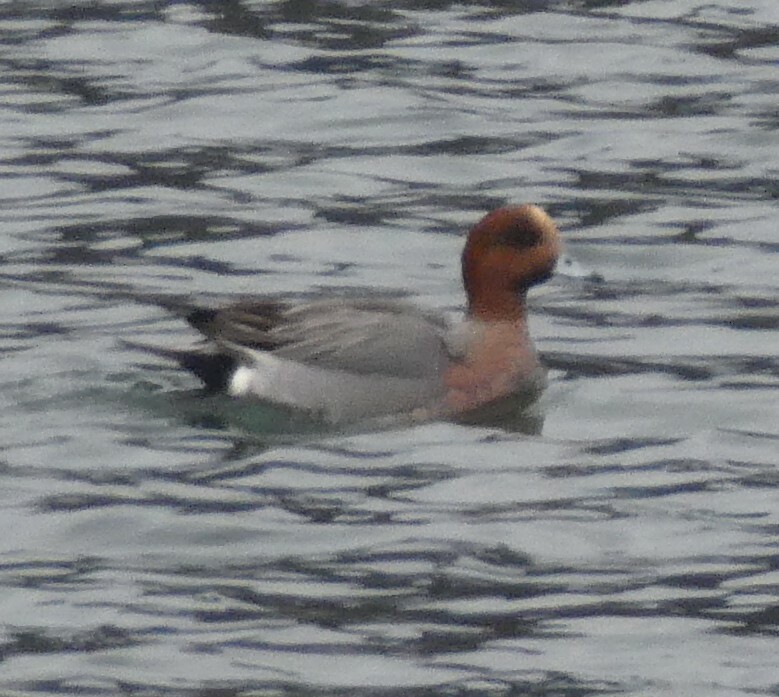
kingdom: Animalia
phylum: Chordata
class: Aves
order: Anseriformes
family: Anatidae
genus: Mareca
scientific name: Mareca penelope
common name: Eurasian wigeon
